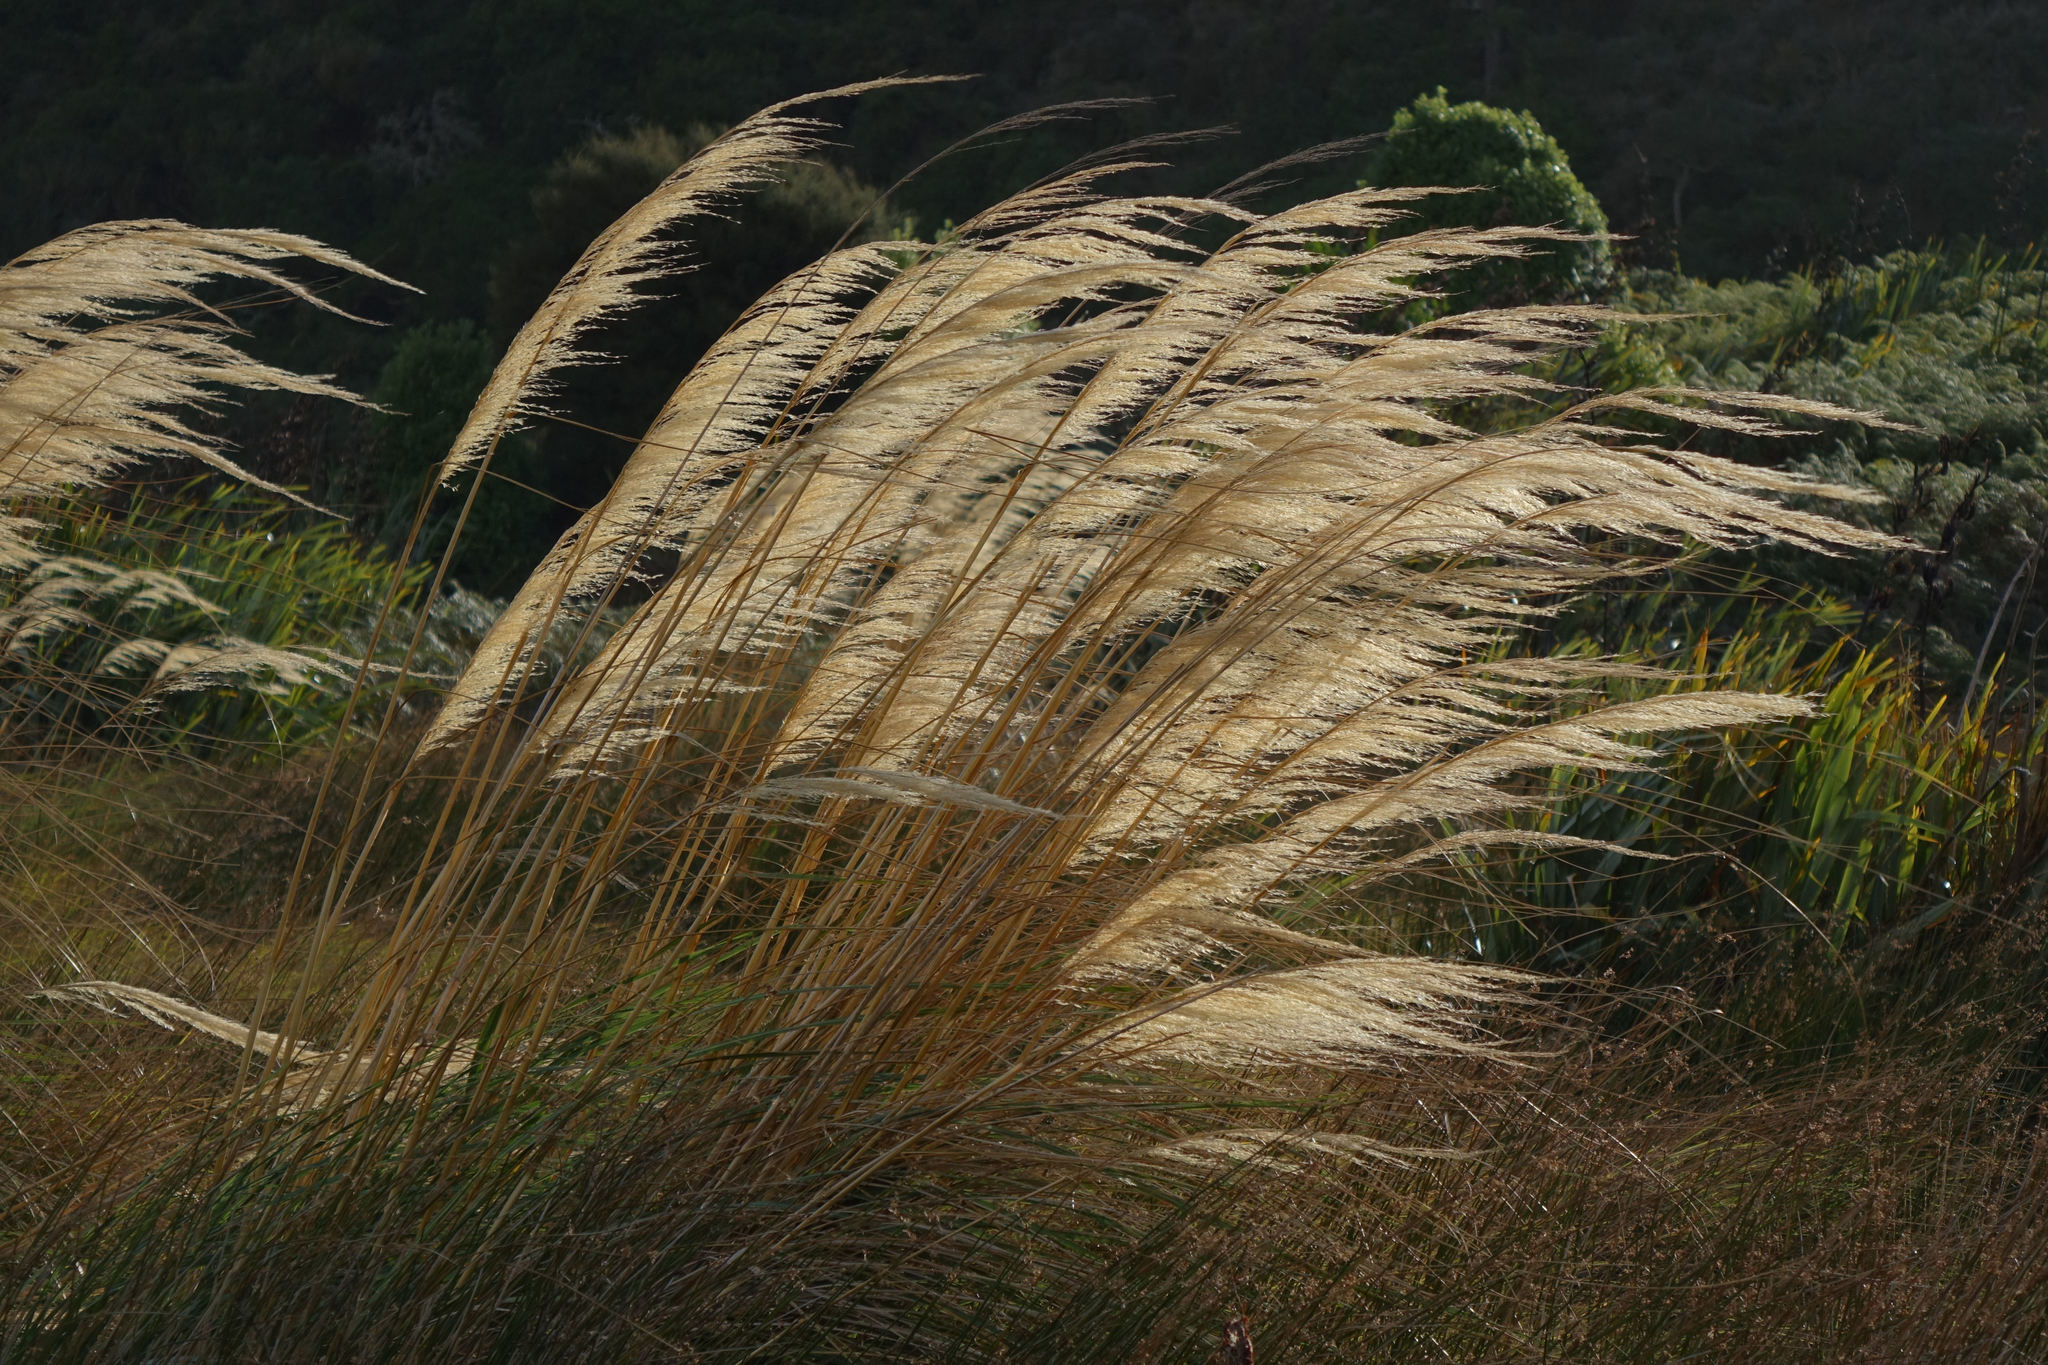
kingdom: Plantae
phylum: Tracheophyta
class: Liliopsida
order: Poales
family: Poaceae
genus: Austroderia
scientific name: Austroderia richardii
